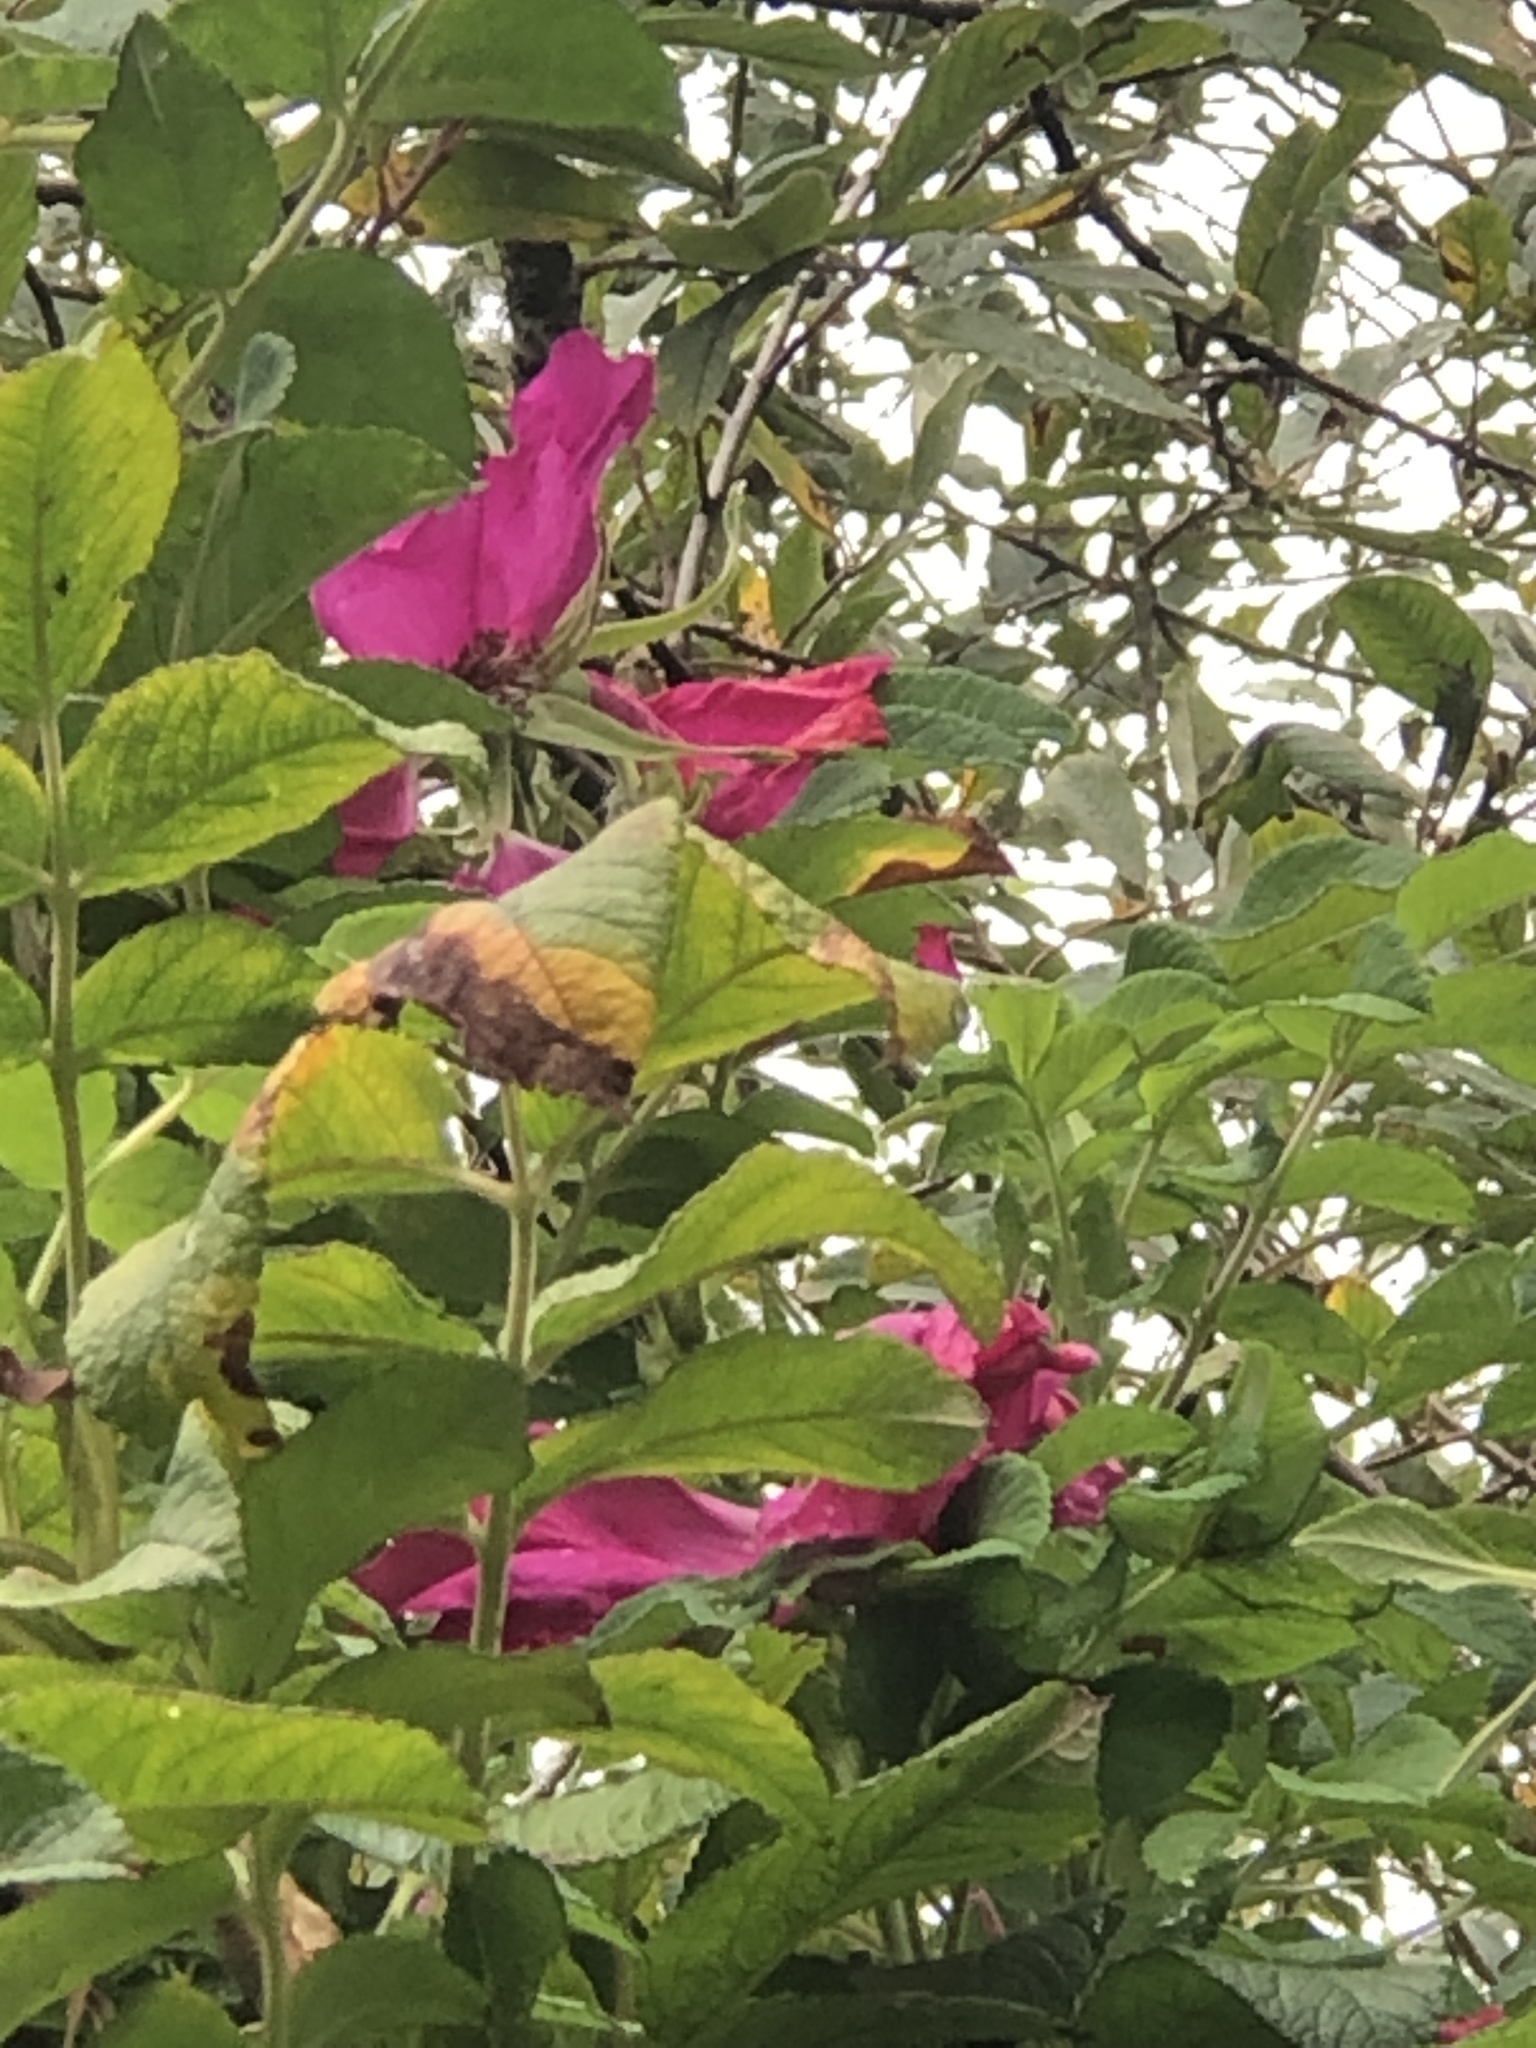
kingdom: Plantae
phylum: Tracheophyta
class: Magnoliopsida
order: Rosales
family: Rosaceae
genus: Rosa
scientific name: Rosa rugosa
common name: Japanese rose
